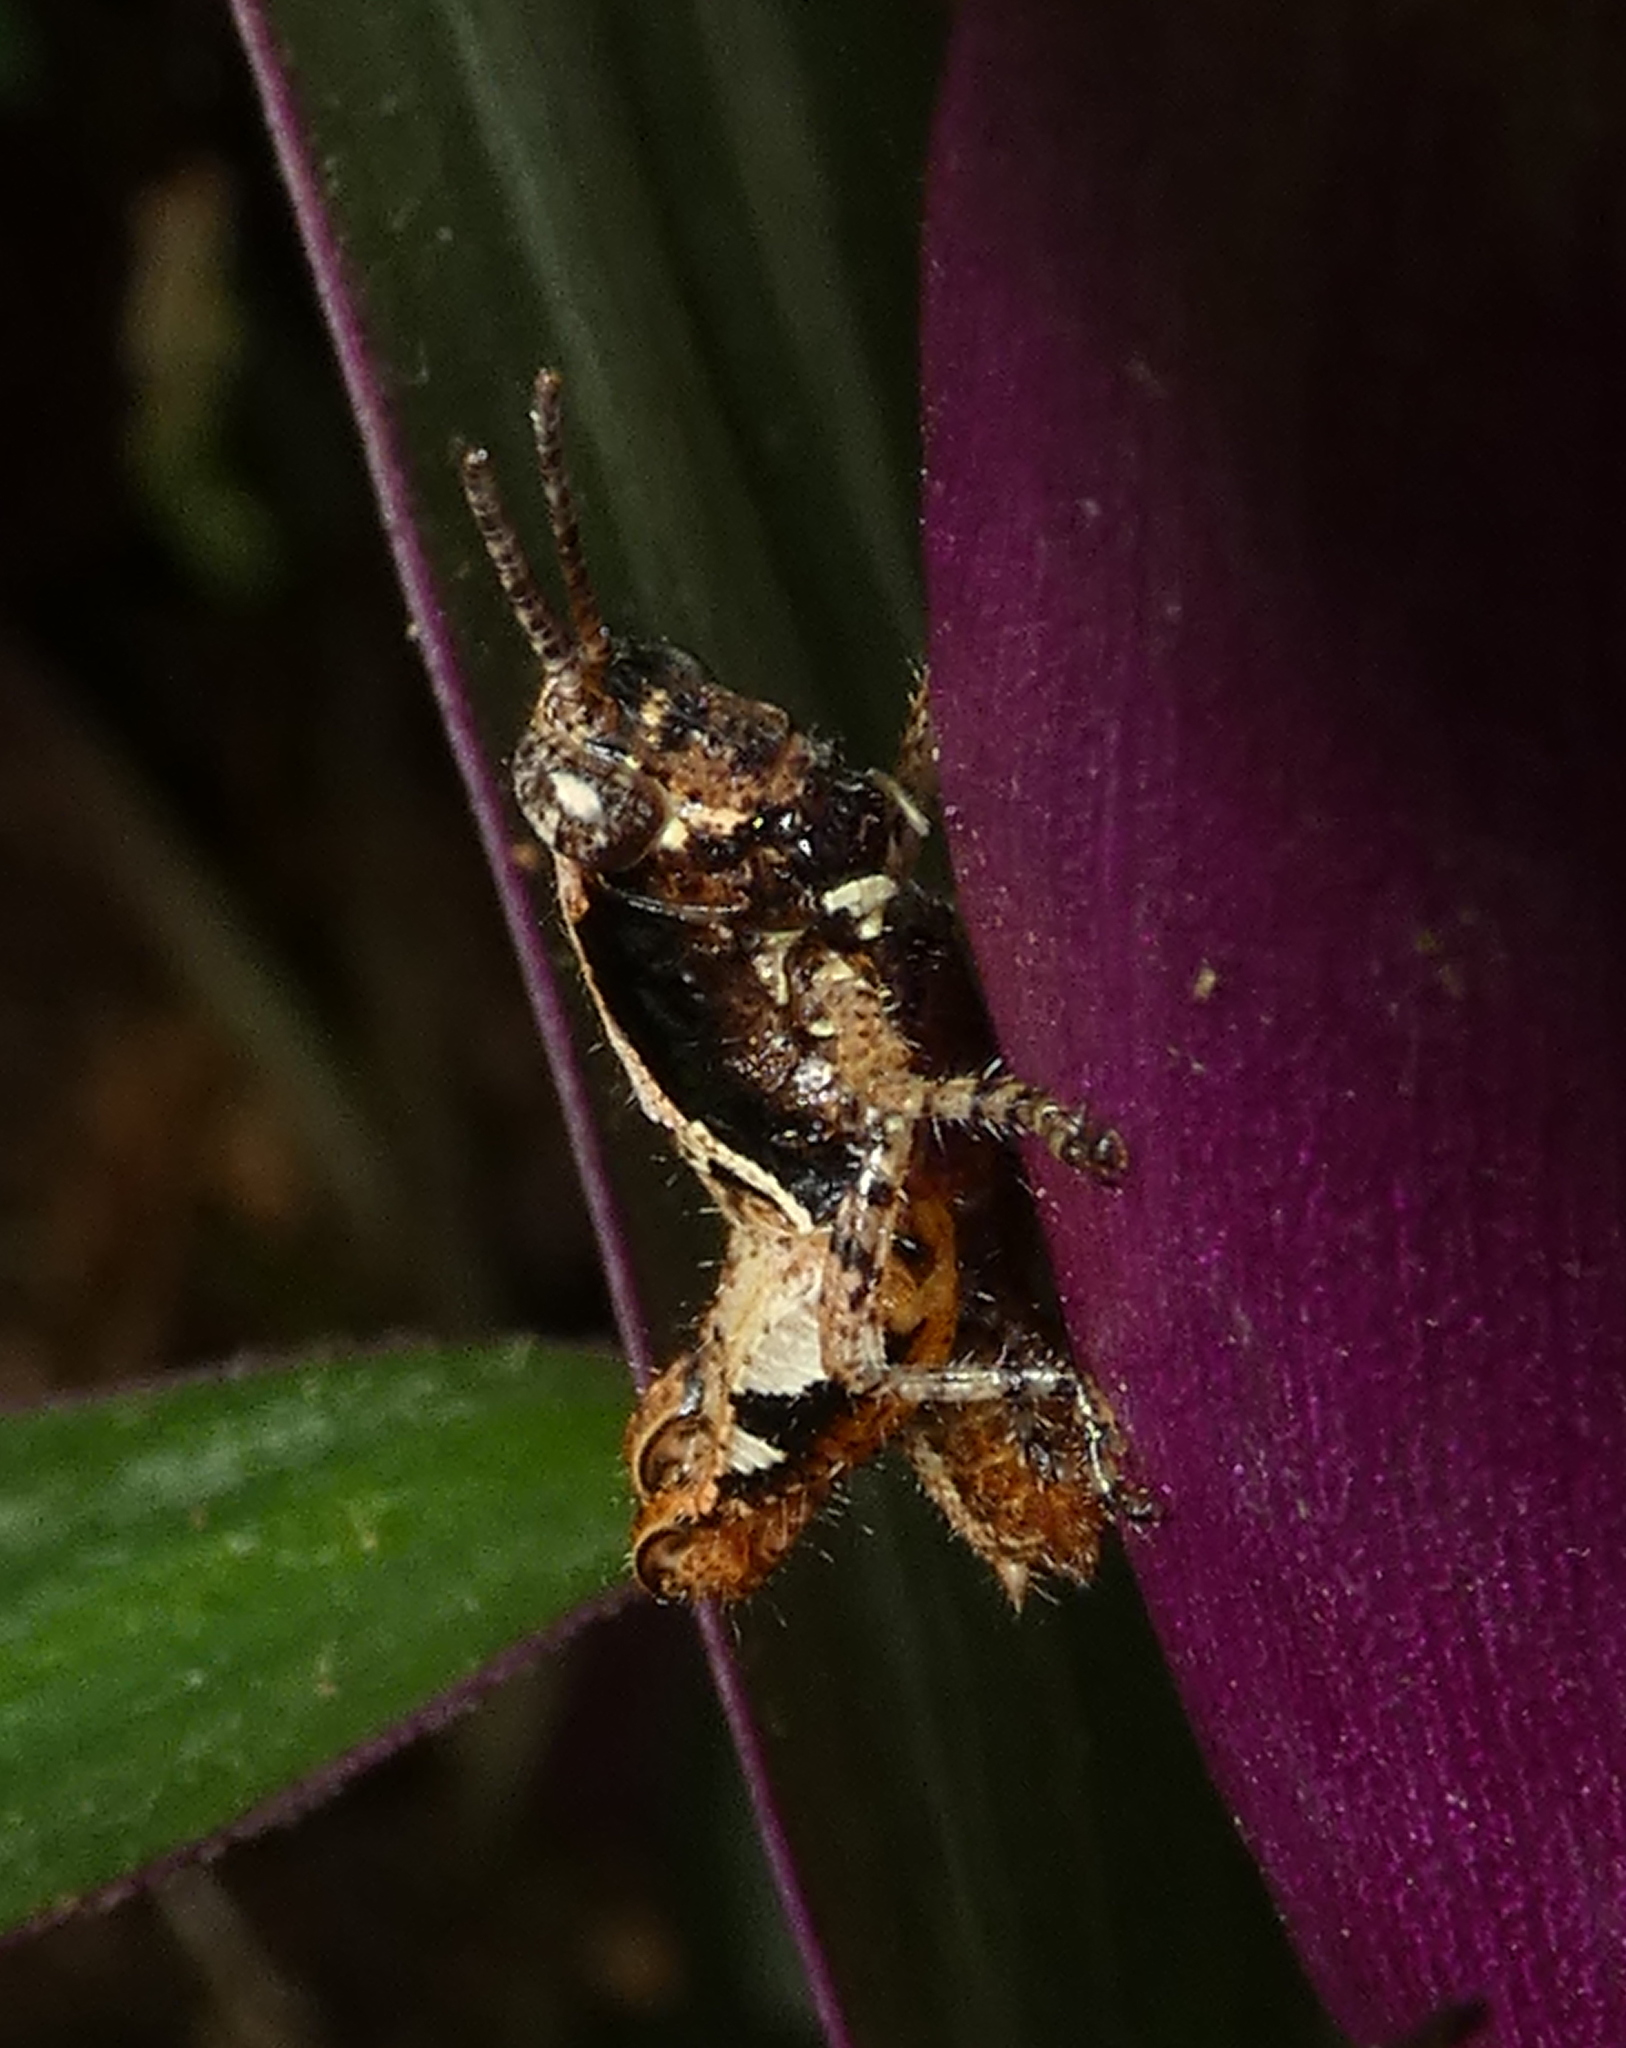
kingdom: Animalia
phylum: Arthropoda
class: Insecta
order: Orthoptera
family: Acrididae
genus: Eujivarus
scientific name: Eujivarus meridionalis
